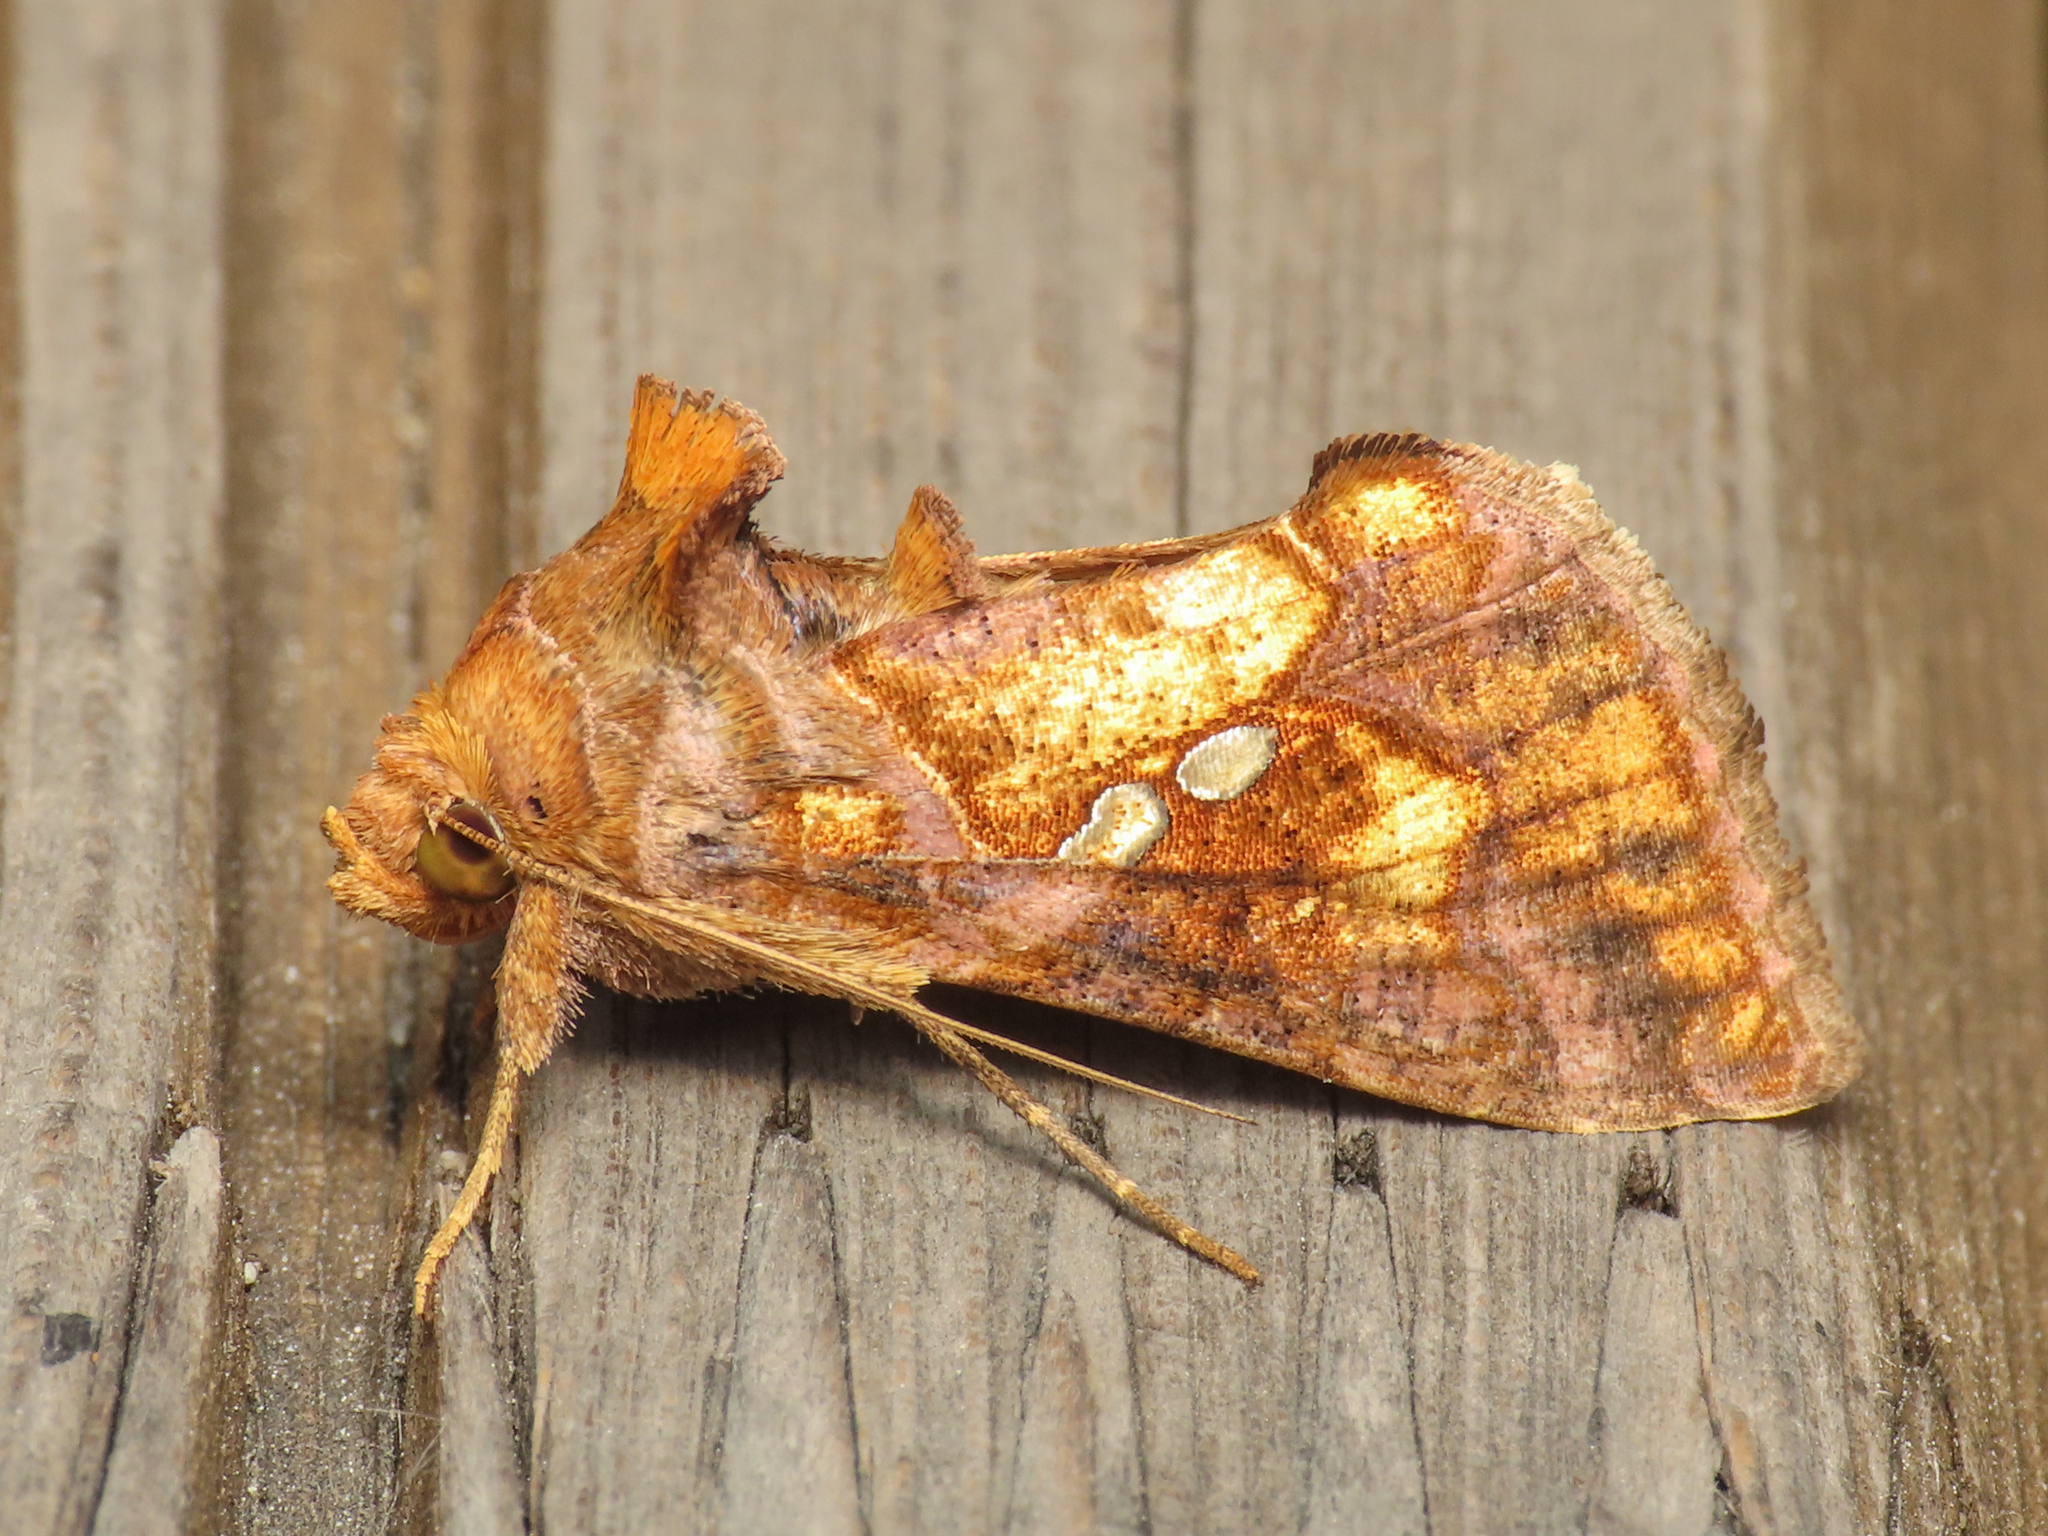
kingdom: Animalia
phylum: Arthropoda
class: Insecta
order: Lepidoptera
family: Noctuidae
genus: Chrysodeixis
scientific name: Chrysodeixis chalcites
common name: Golden twin-spot
